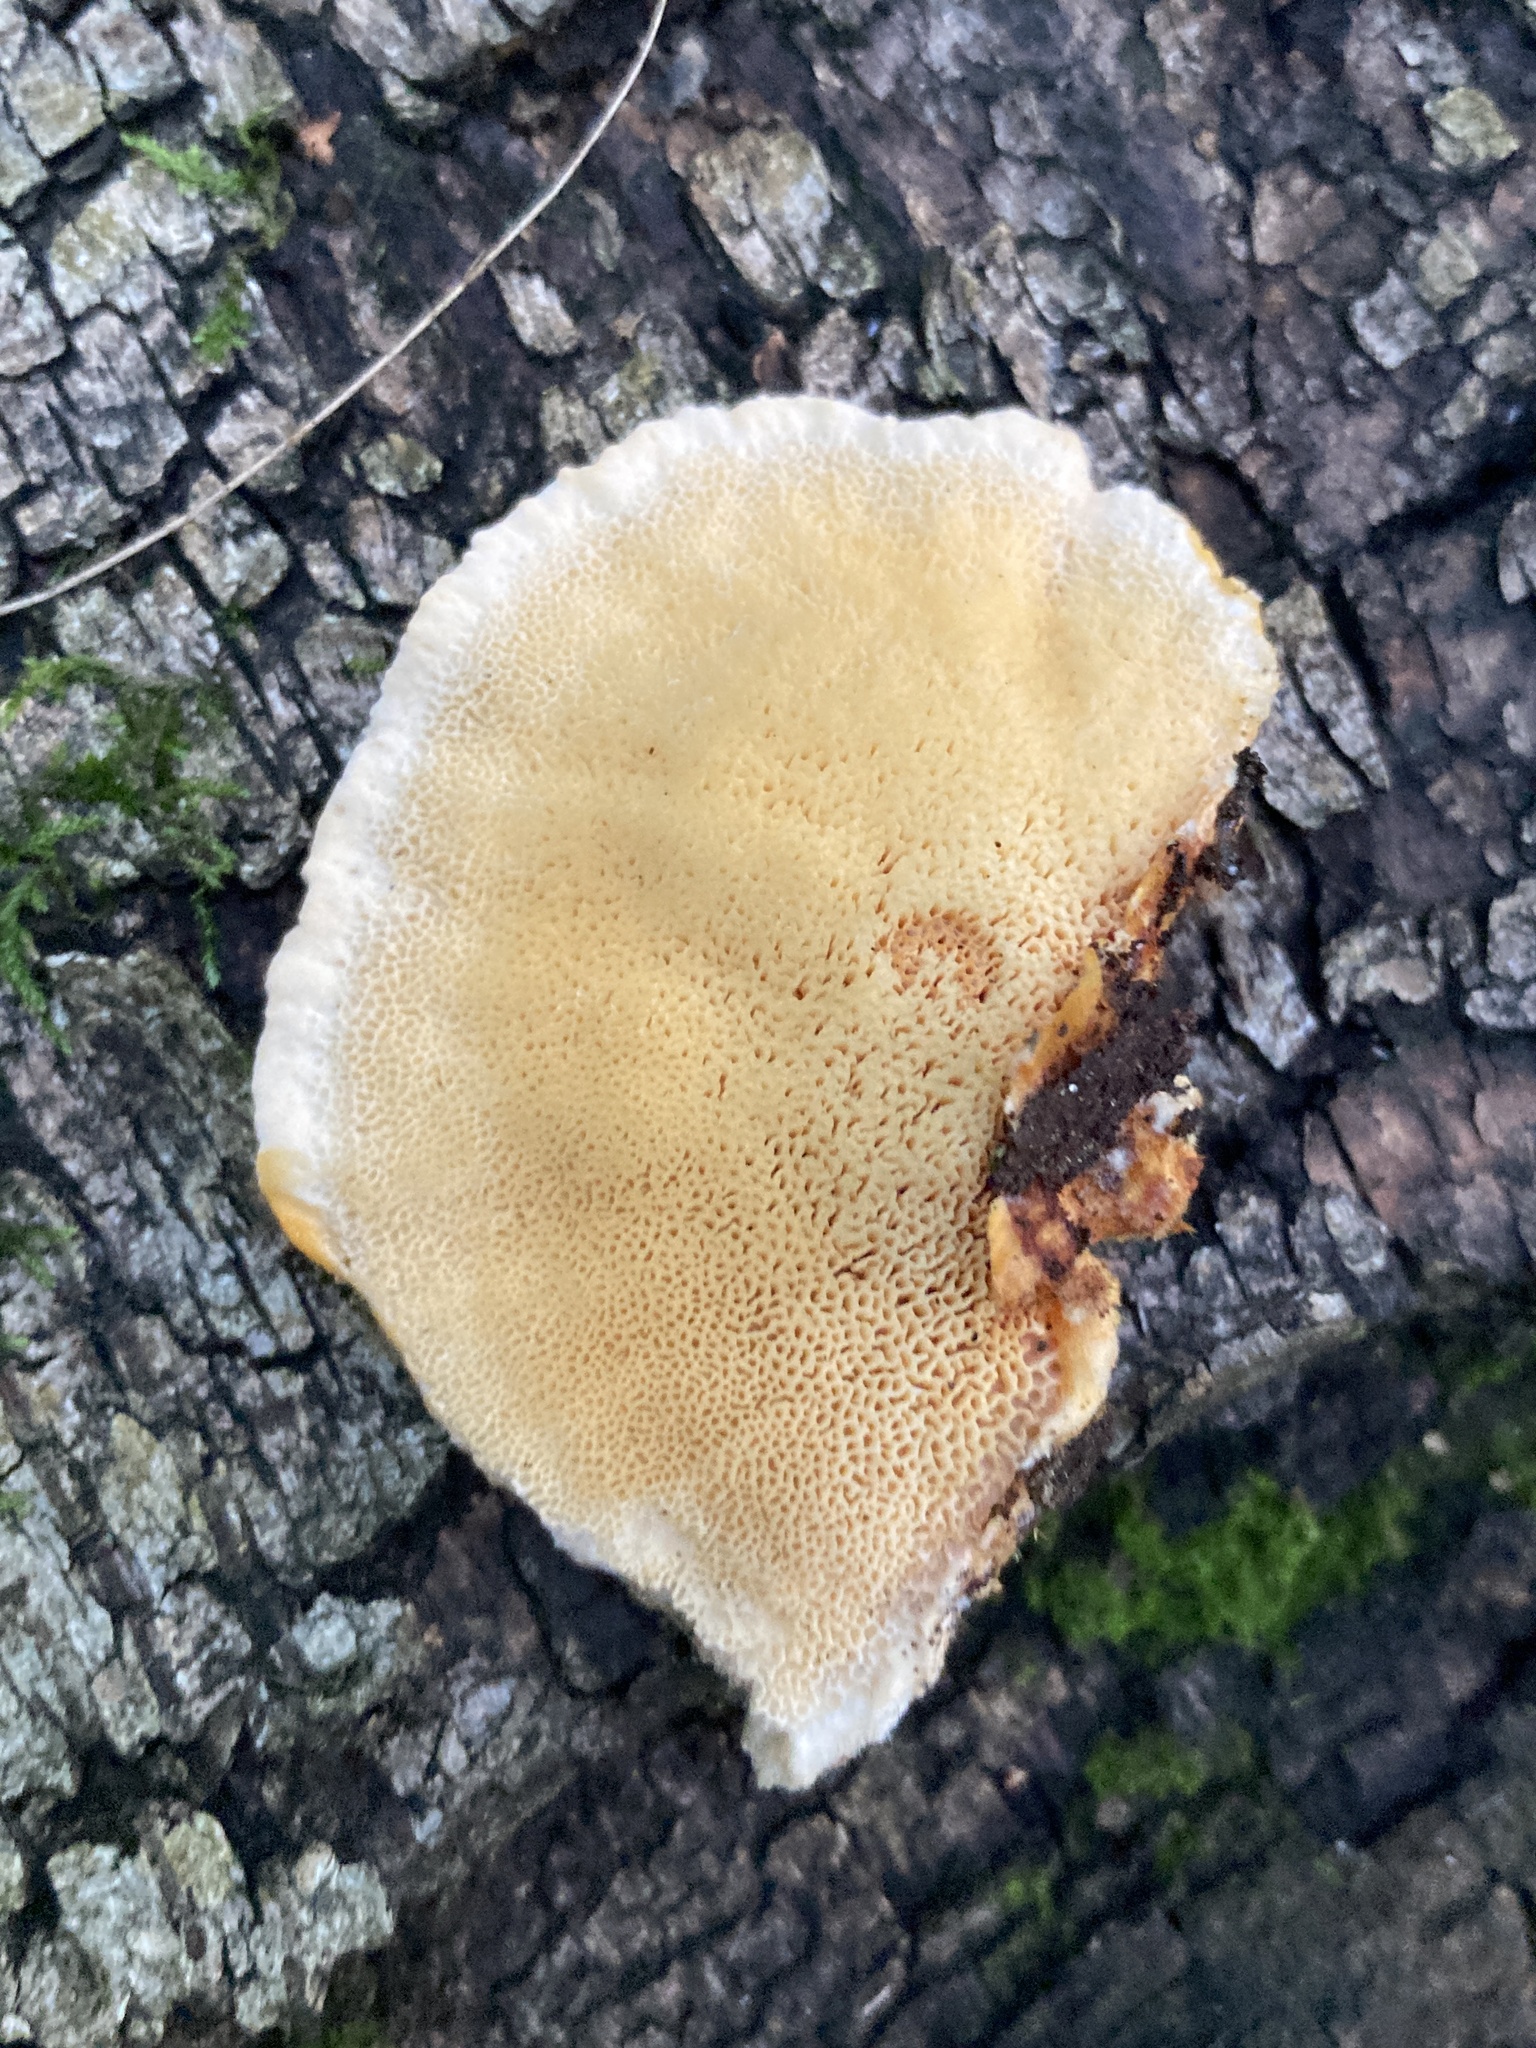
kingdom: Fungi
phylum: Basidiomycota
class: Agaricomycetes
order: Polyporales
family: Polyporaceae
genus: Trametes
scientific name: Trametes ochracea
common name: Ochre bracket
